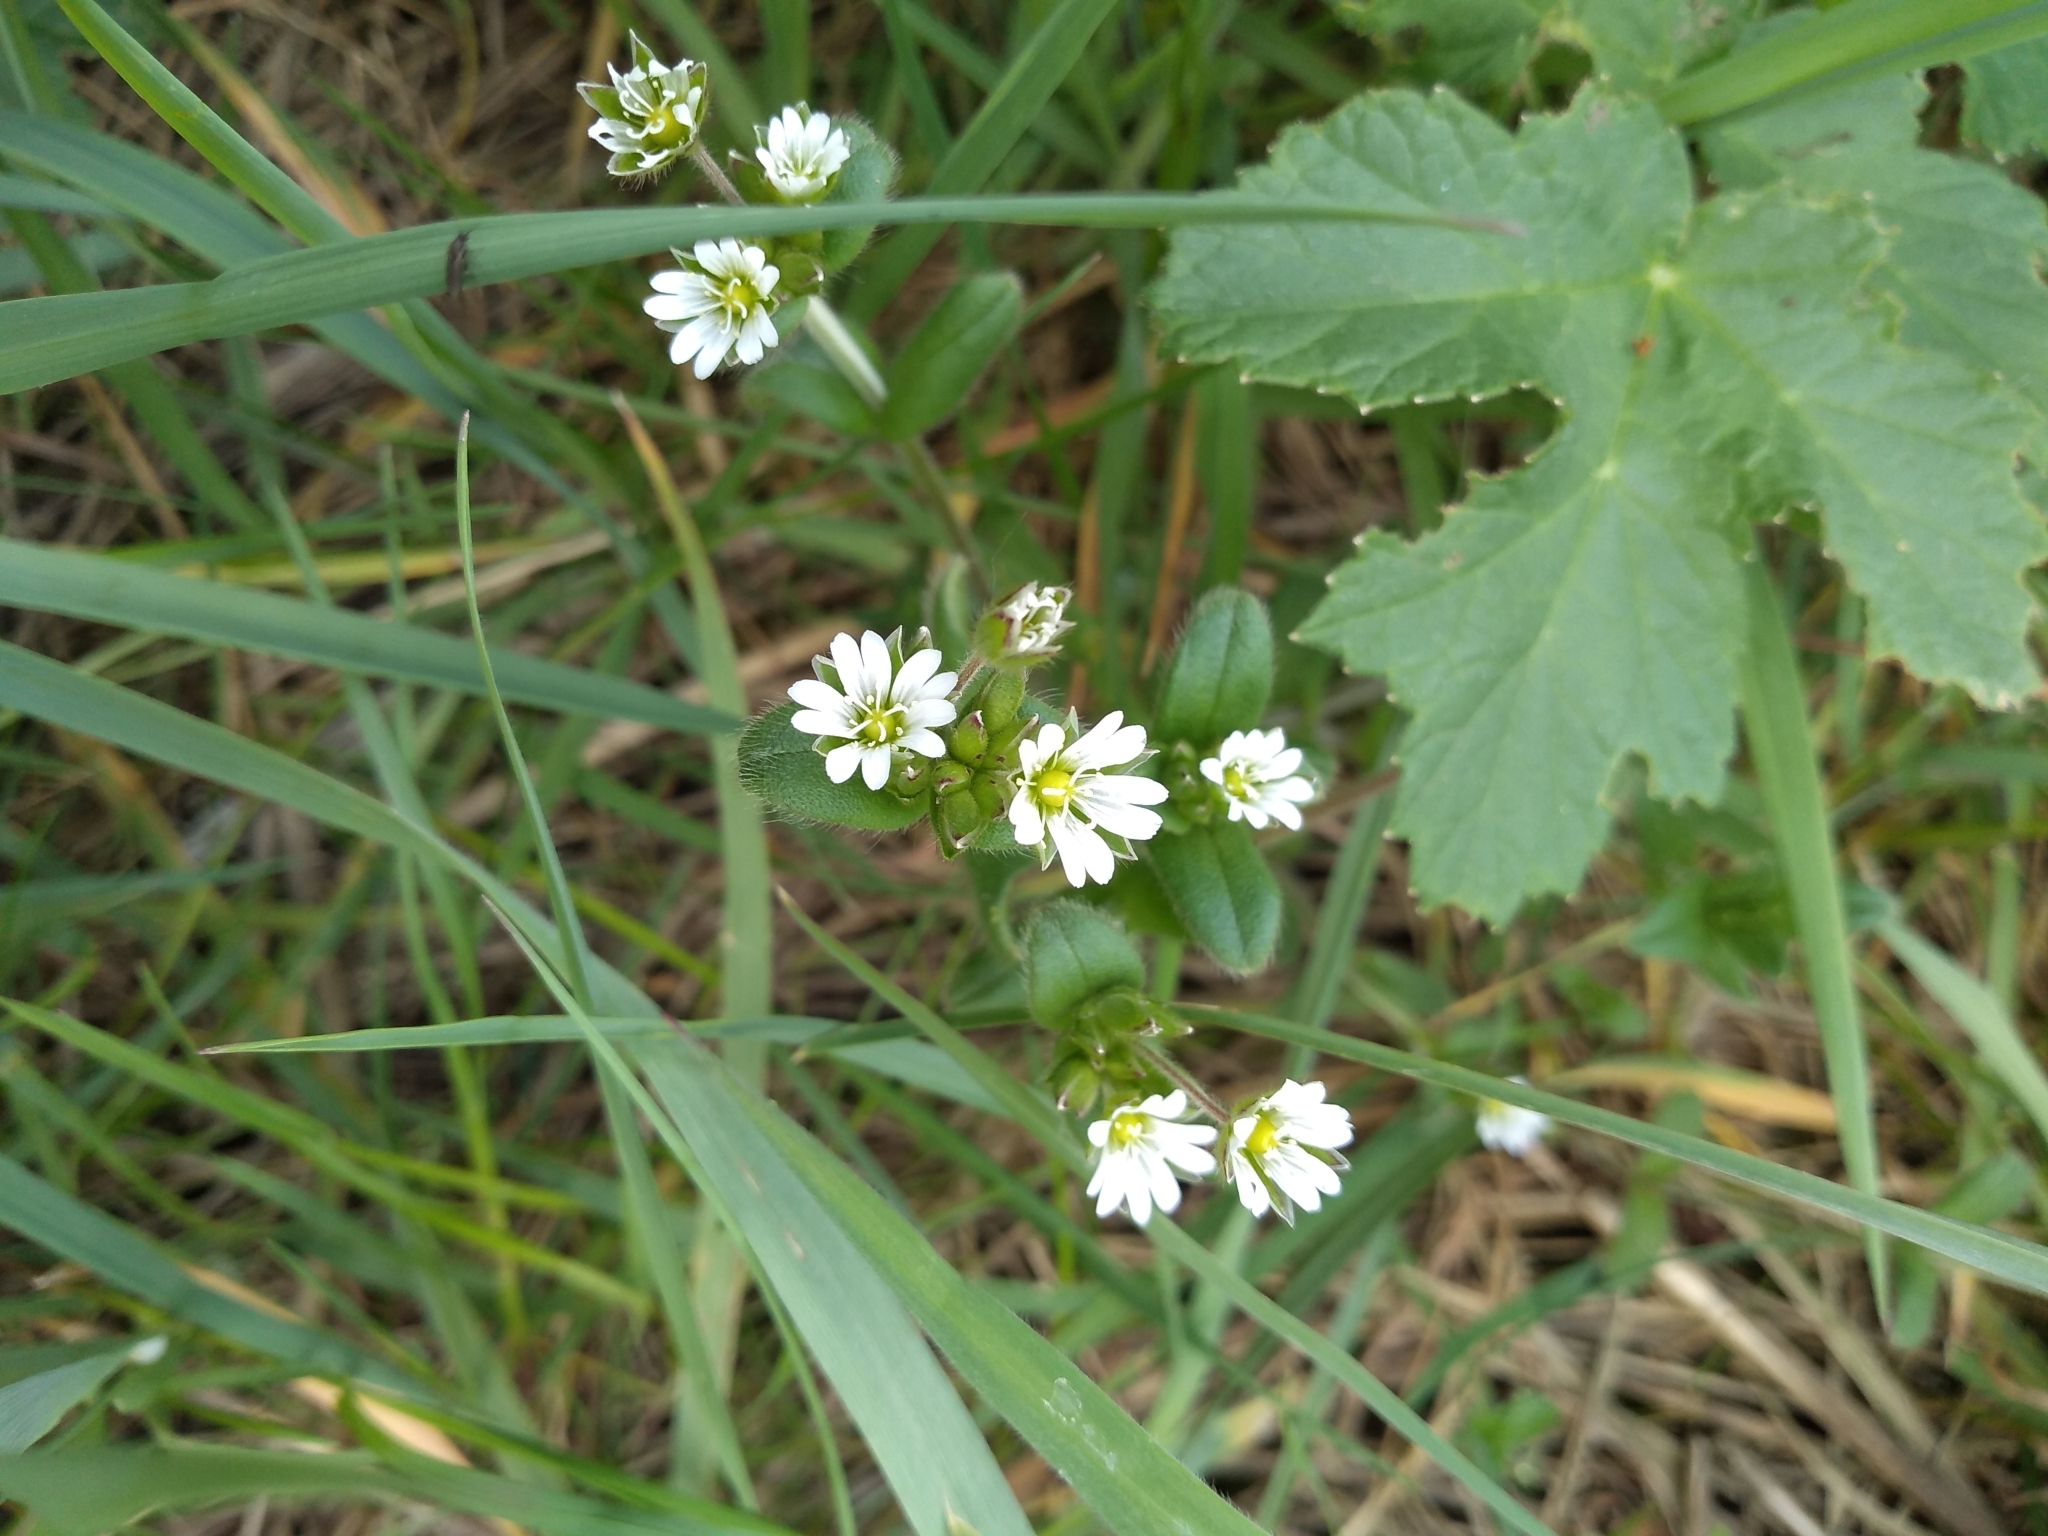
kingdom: Plantae
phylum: Tracheophyta
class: Magnoliopsida
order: Caryophyllales
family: Caryophyllaceae
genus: Cerastium
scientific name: Cerastium fontanum
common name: Common mouse-ear
